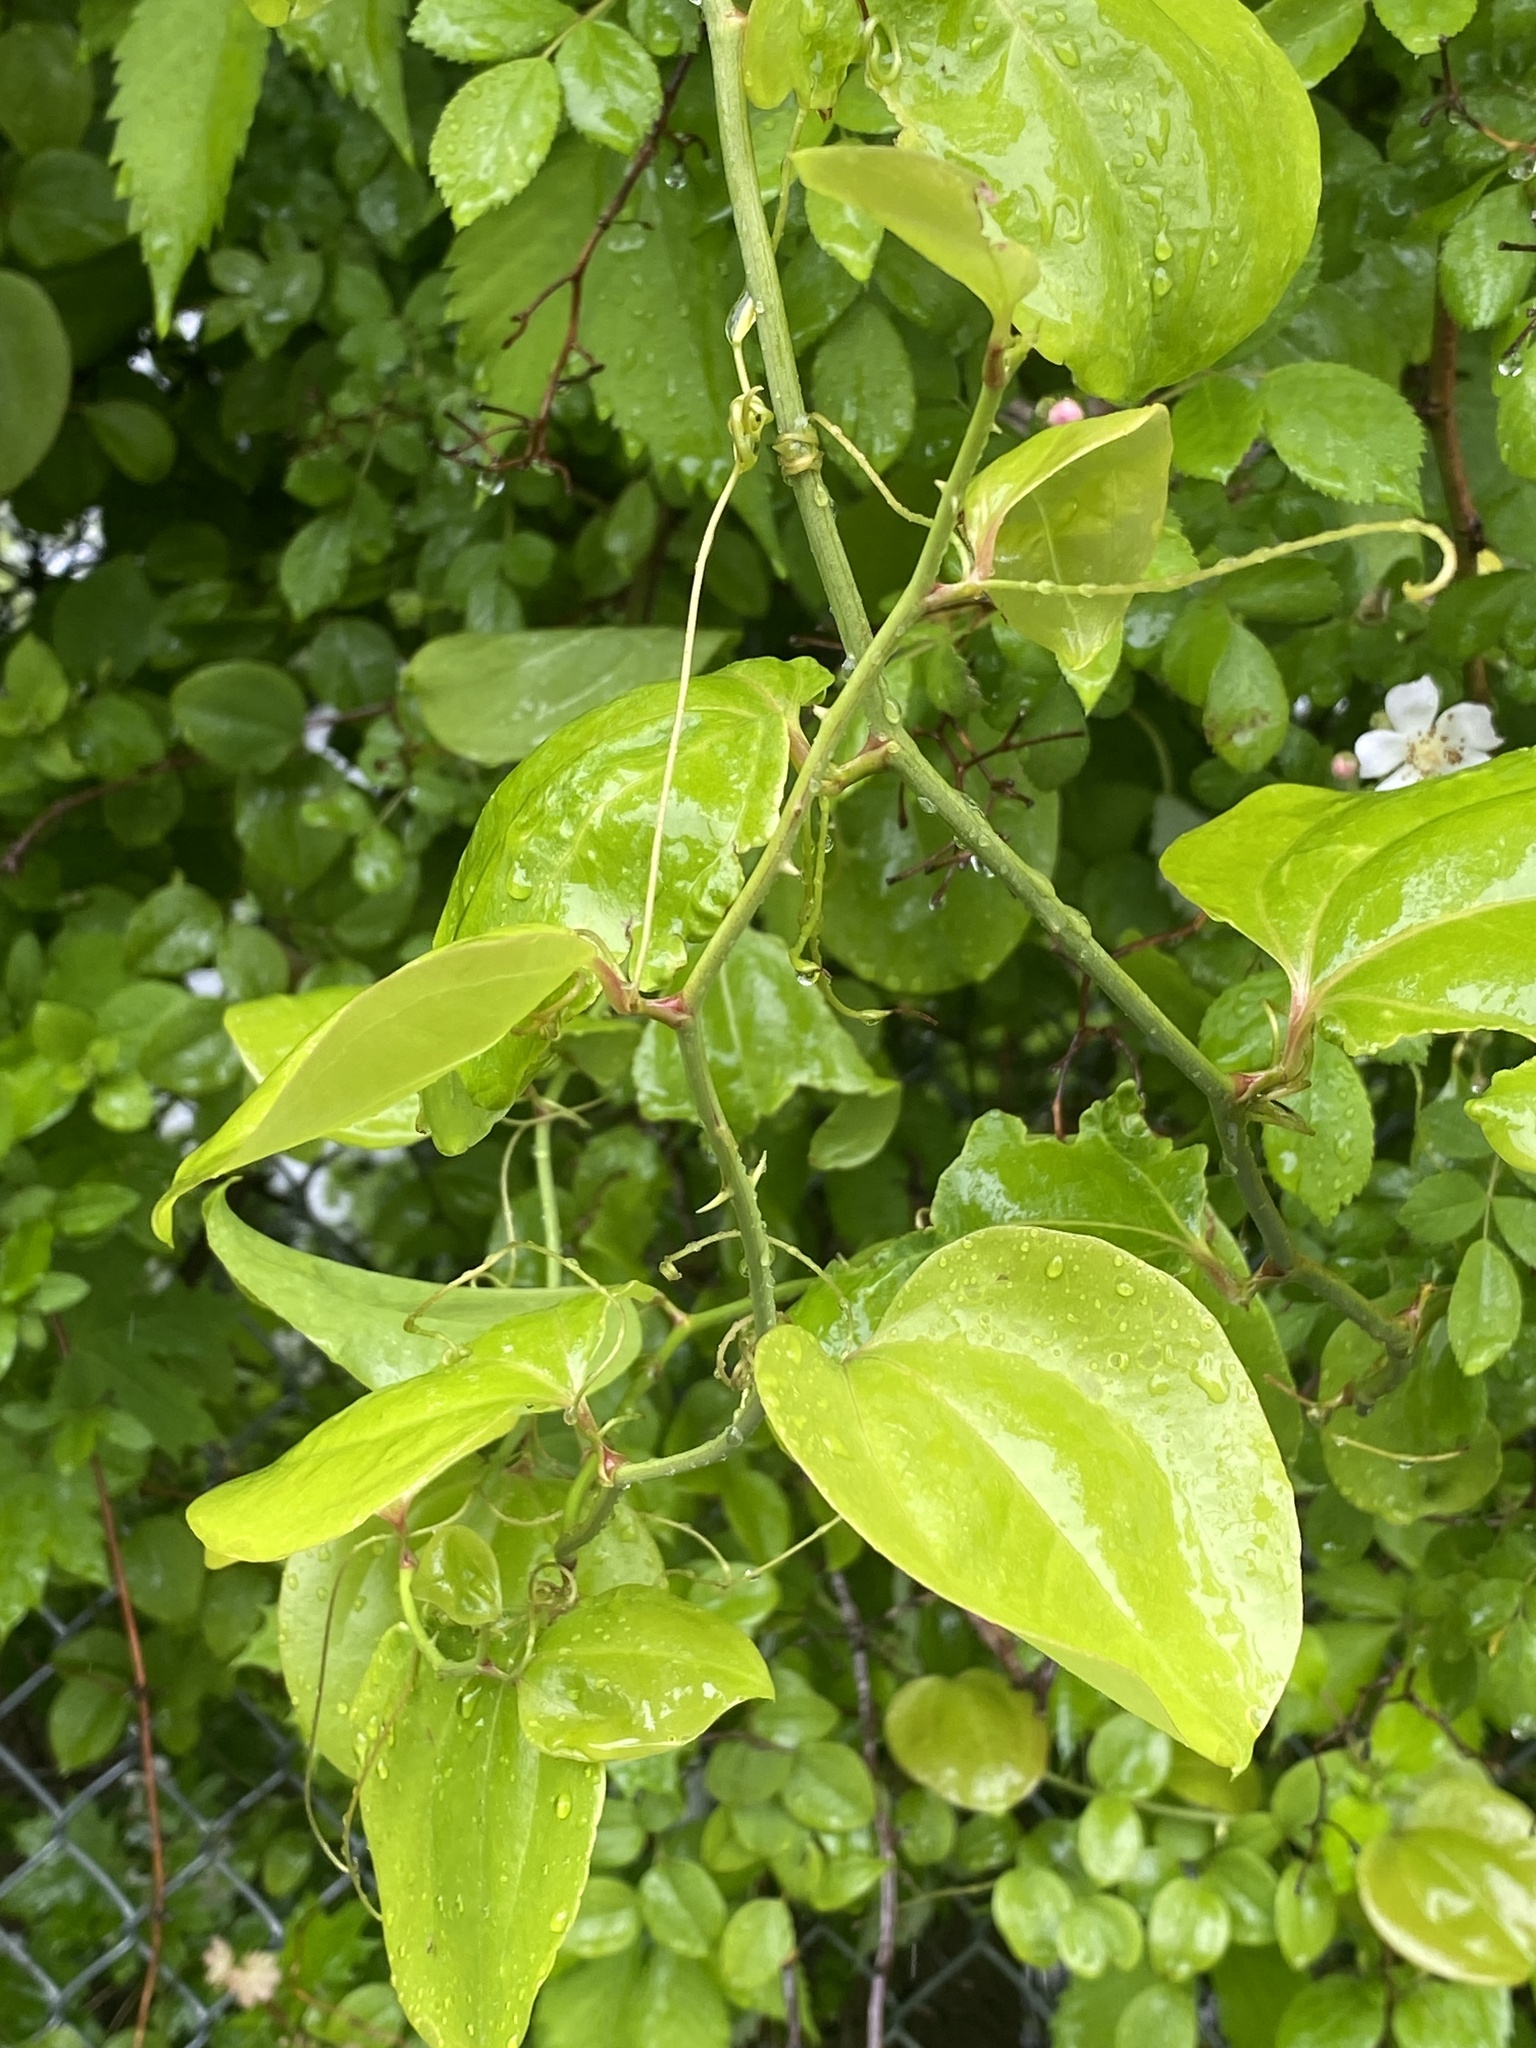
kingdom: Plantae
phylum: Tracheophyta
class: Liliopsida
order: Liliales
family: Smilacaceae
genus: Smilax
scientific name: Smilax rotundifolia
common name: Bullbriar
